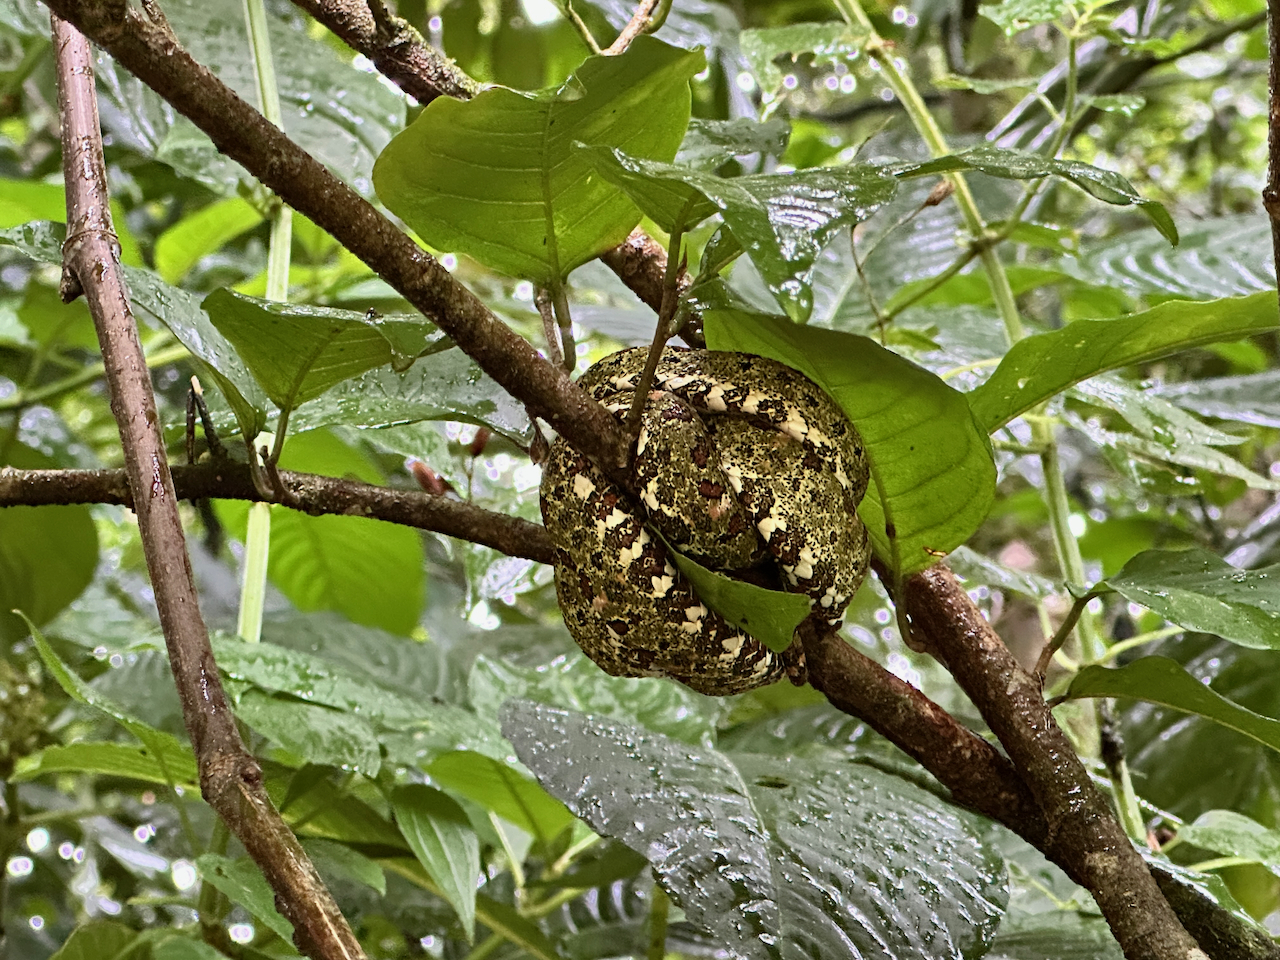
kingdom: Animalia
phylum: Chordata
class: Squamata
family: Viperidae
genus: Bothriechis
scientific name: Bothriechis schlegelii
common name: Eyelash viper
